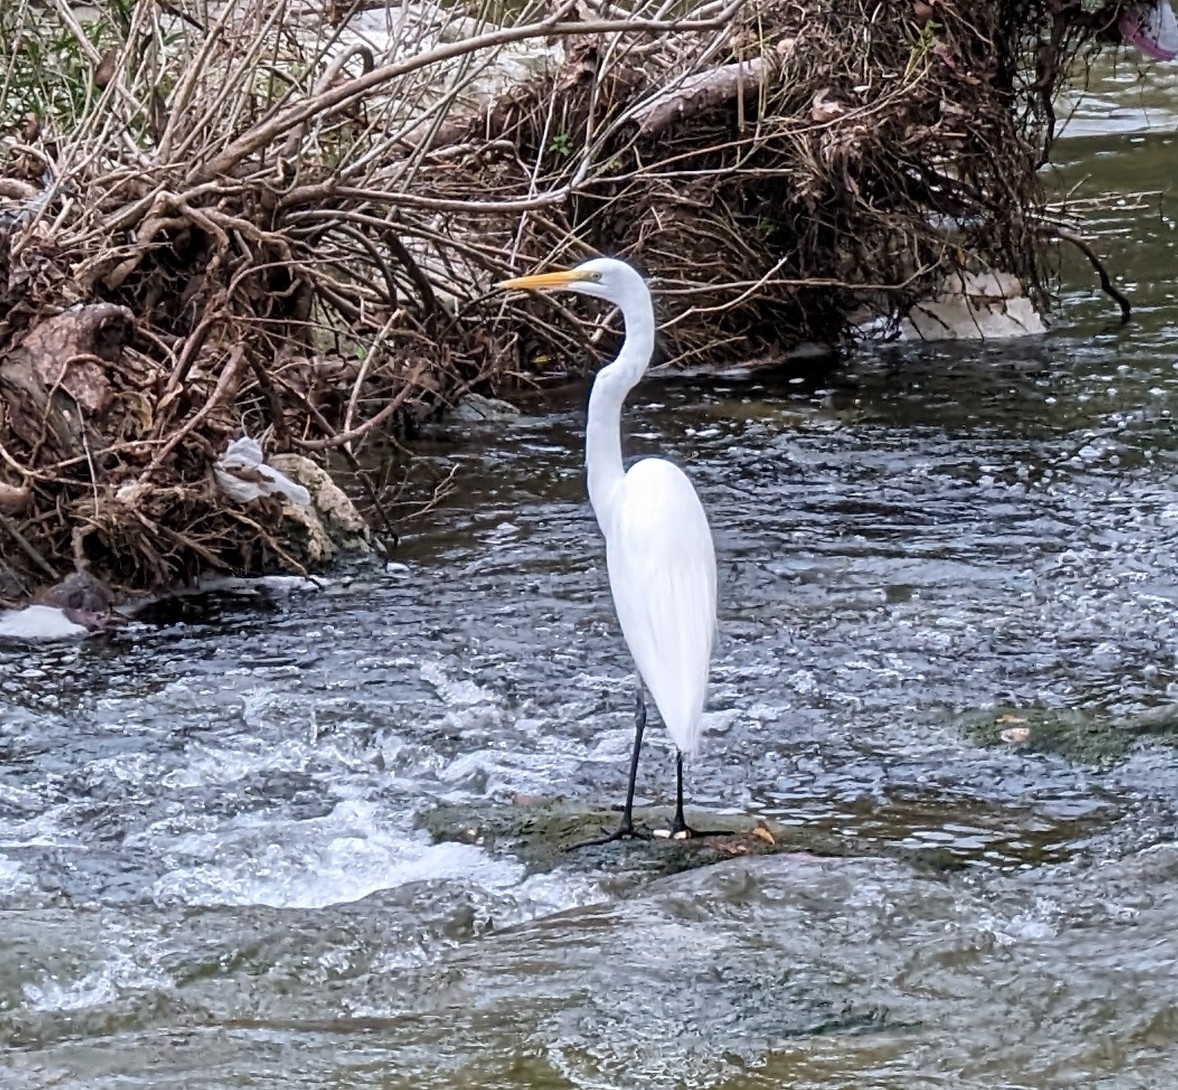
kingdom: Animalia
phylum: Chordata
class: Aves
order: Pelecaniformes
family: Ardeidae
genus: Ardea
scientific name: Ardea alba
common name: Great egret
